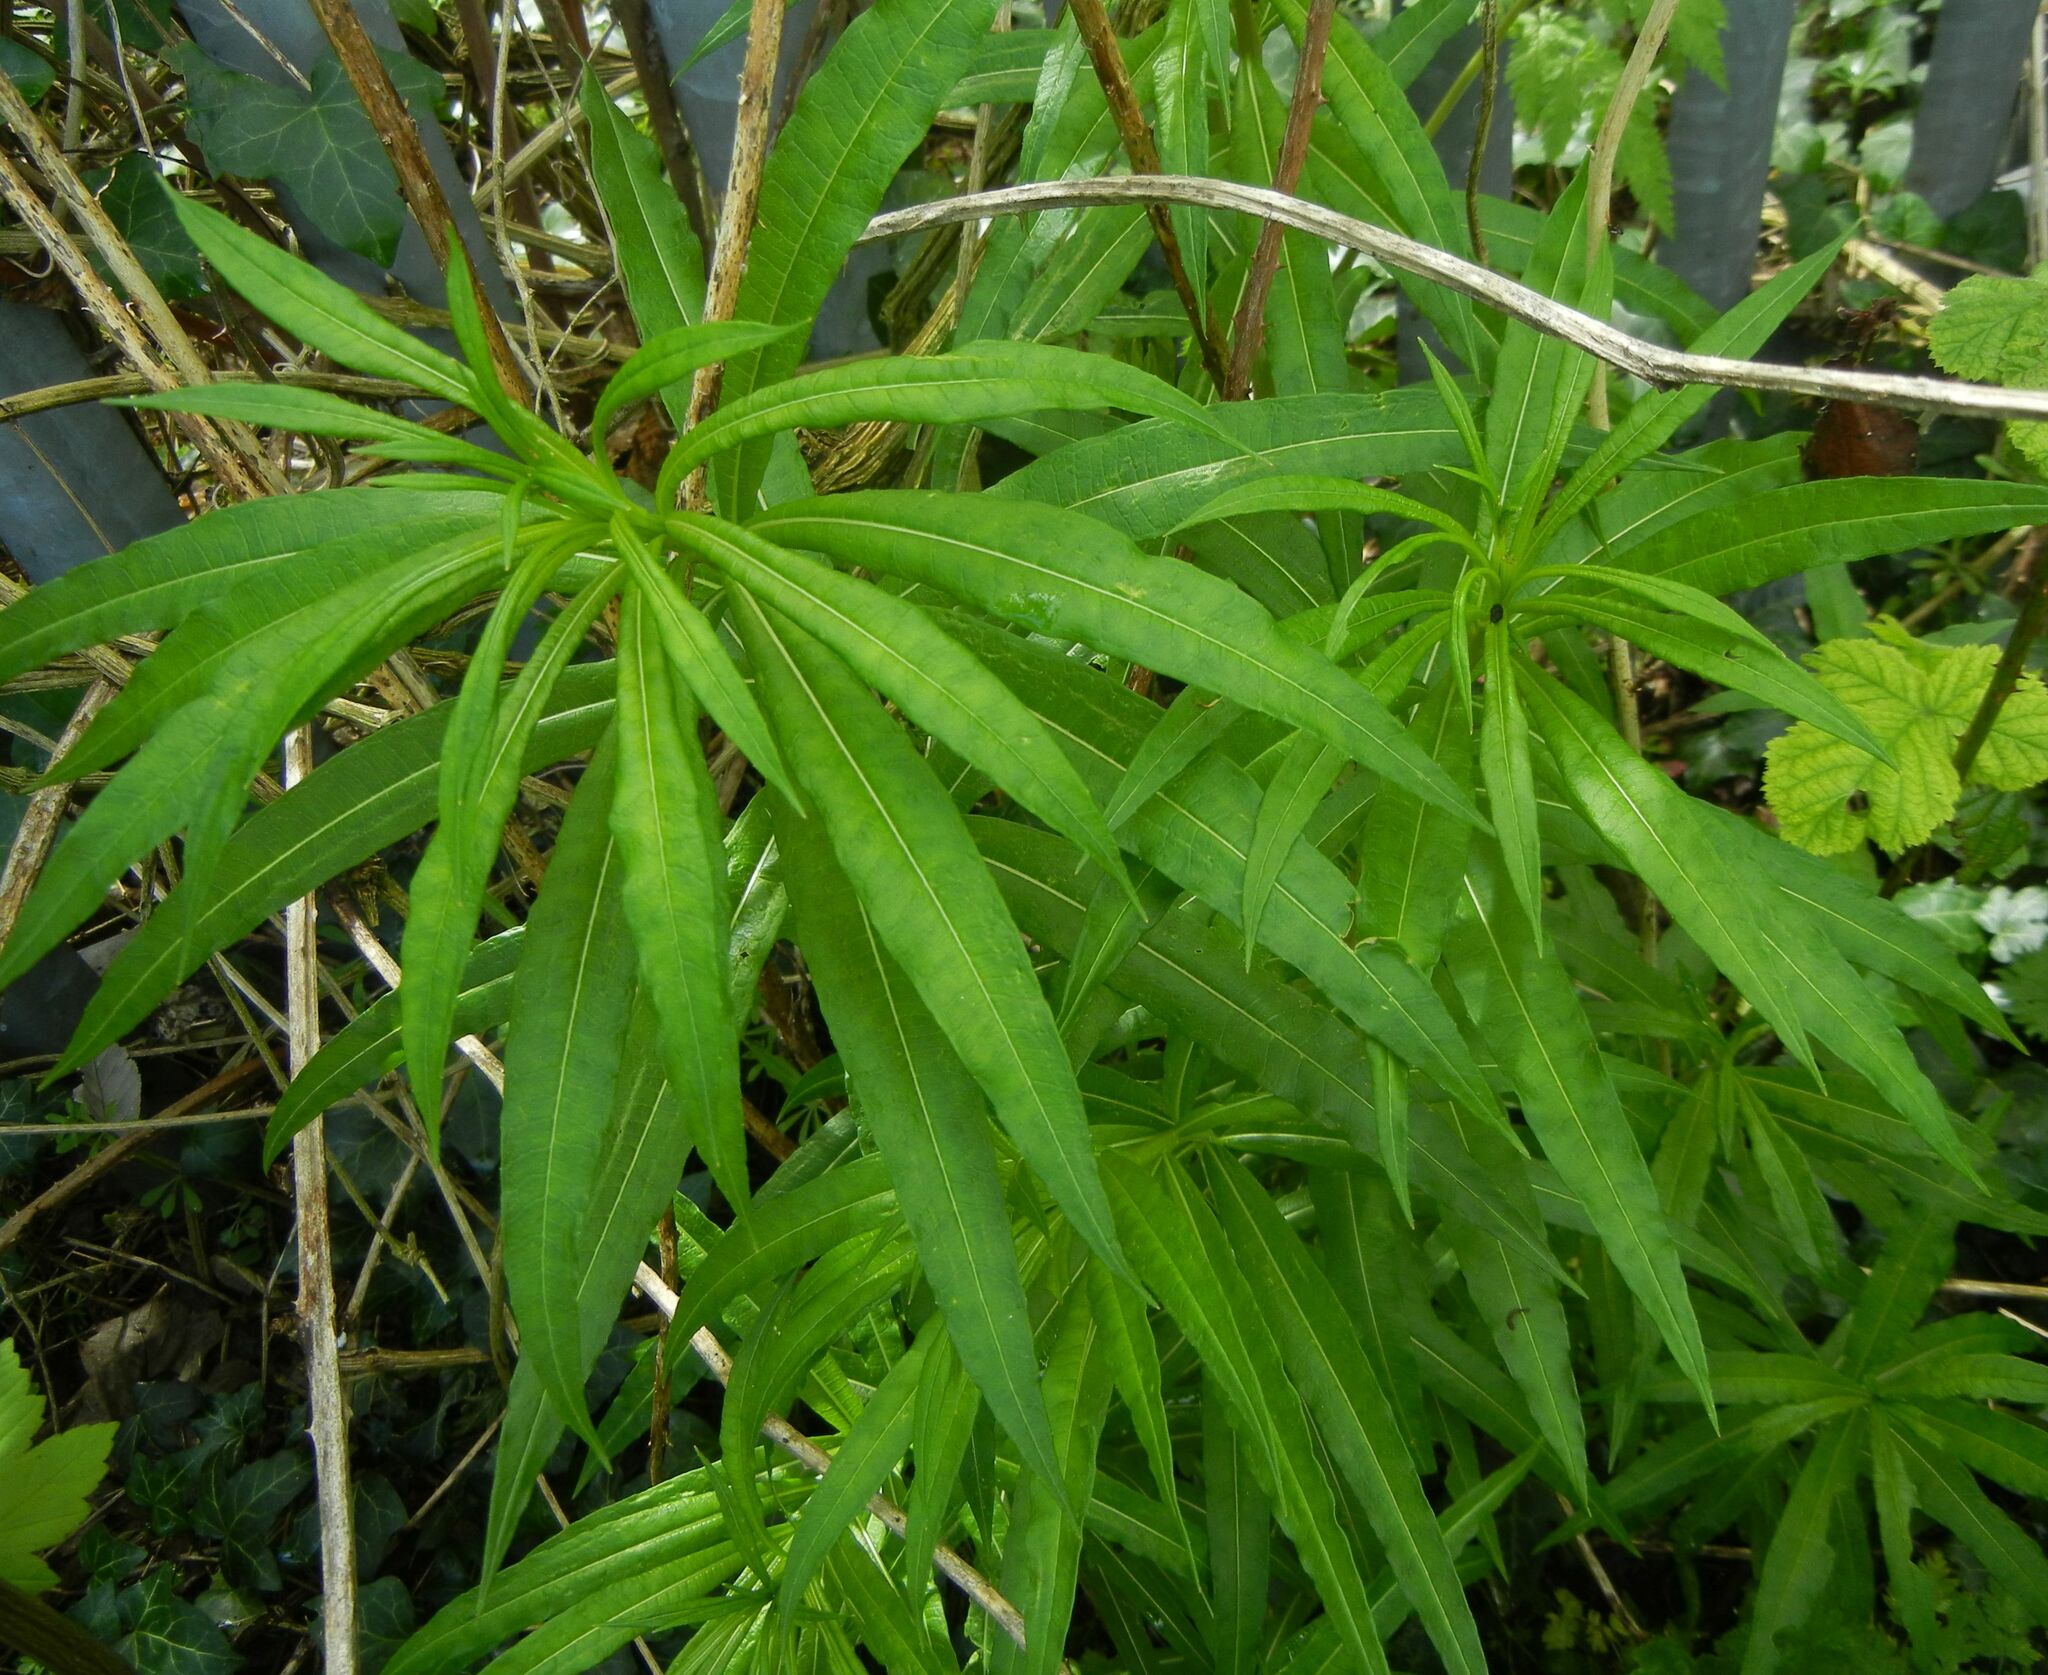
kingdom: Plantae
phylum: Tracheophyta
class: Magnoliopsida
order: Myrtales
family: Onagraceae
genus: Chamaenerion
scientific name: Chamaenerion angustifolium
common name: Fireweed
